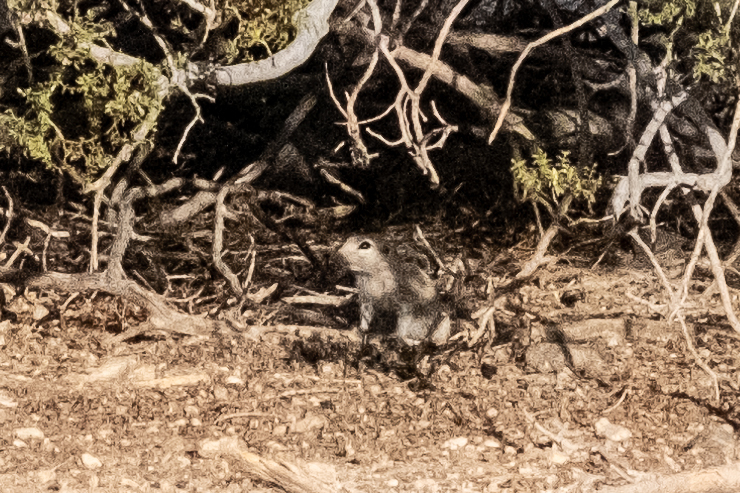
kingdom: Animalia
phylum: Chordata
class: Mammalia
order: Rodentia
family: Sciuridae
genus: Xerospermophilus
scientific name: Xerospermophilus tereticaudus
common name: Round-tailed ground squirrel
